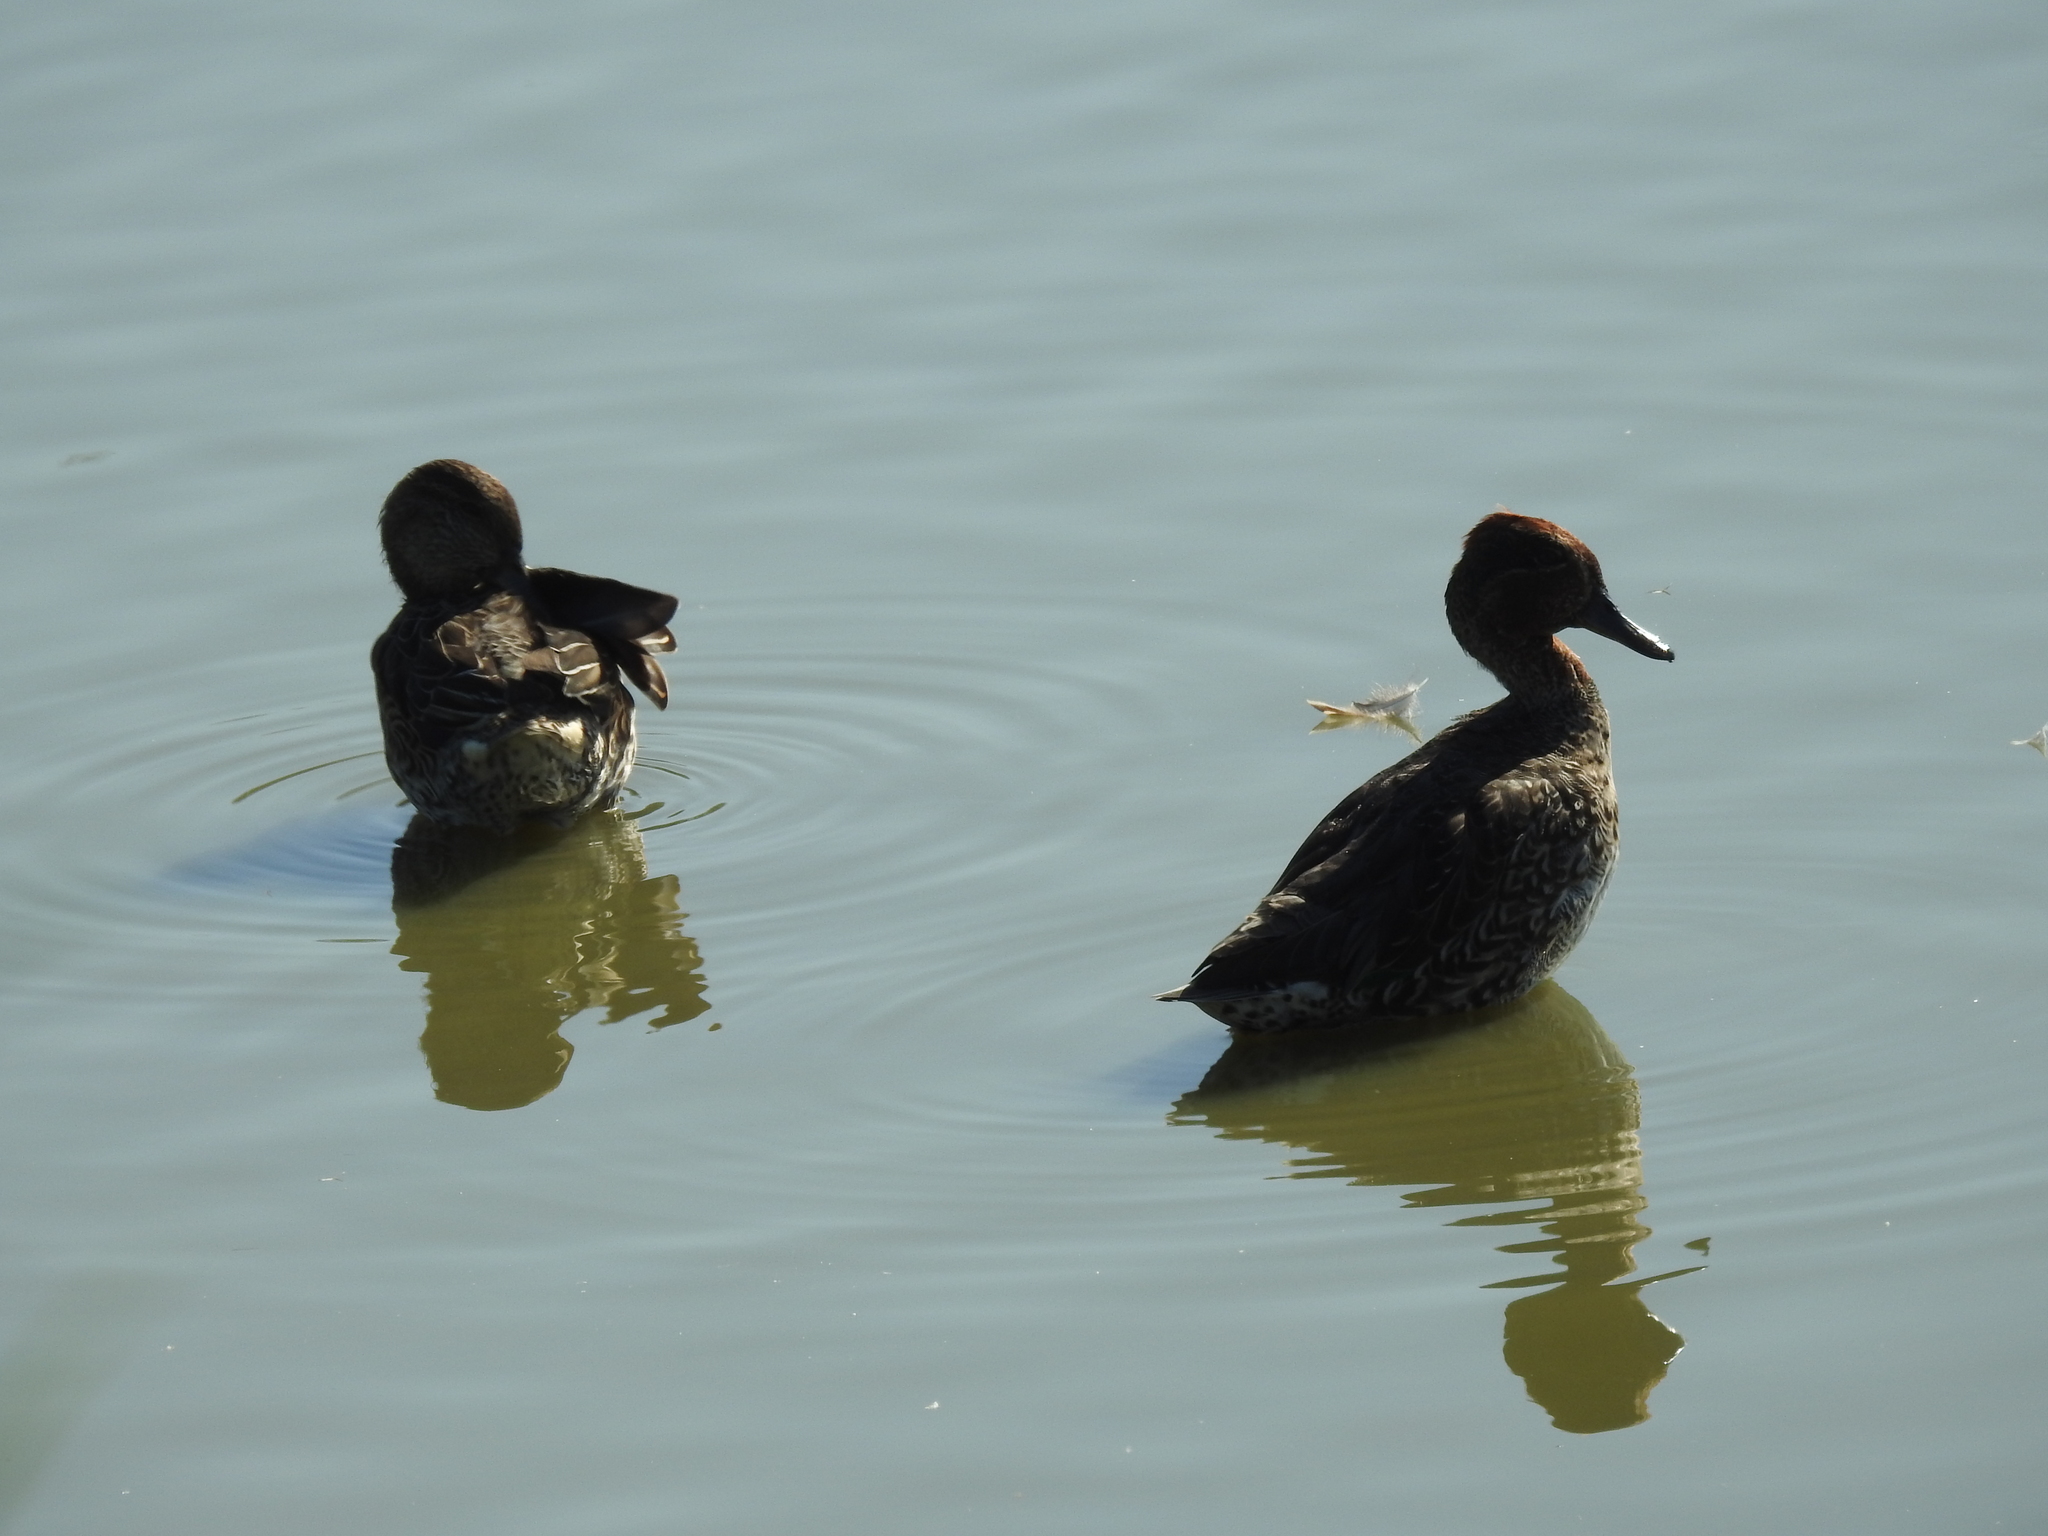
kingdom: Animalia
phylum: Chordata
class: Aves
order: Anseriformes
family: Anatidae
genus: Anas
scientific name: Anas crecca
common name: Eurasian teal
